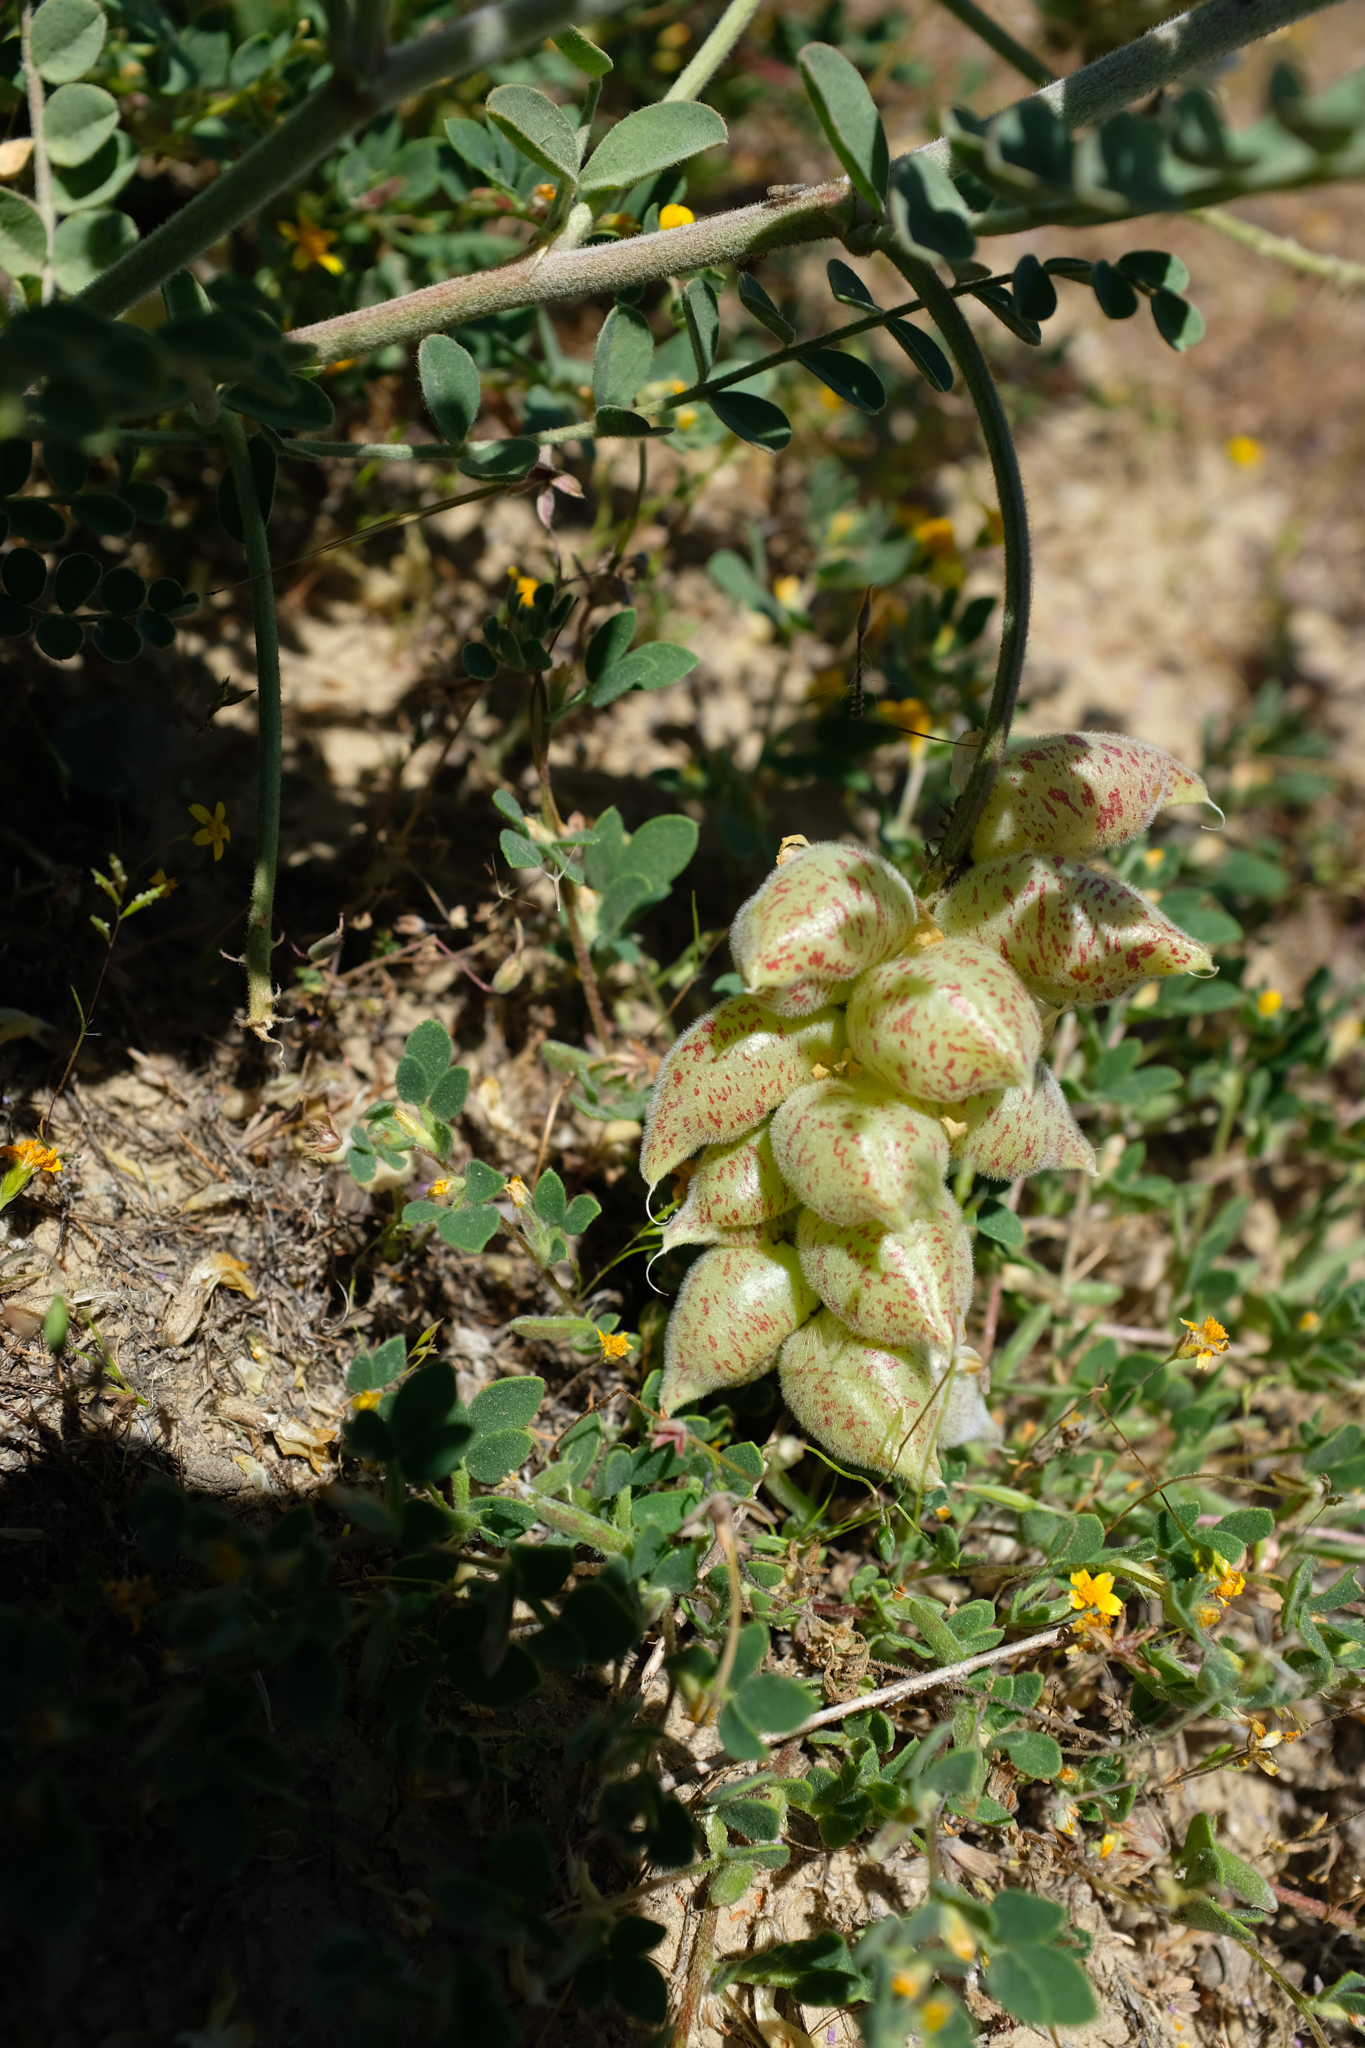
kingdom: Plantae
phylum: Tracheophyta
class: Magnoliopsida
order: Fabales
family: Fabaceae
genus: Astragalus
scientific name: Astragalus lentiginosus
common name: Freckled milkvetch
